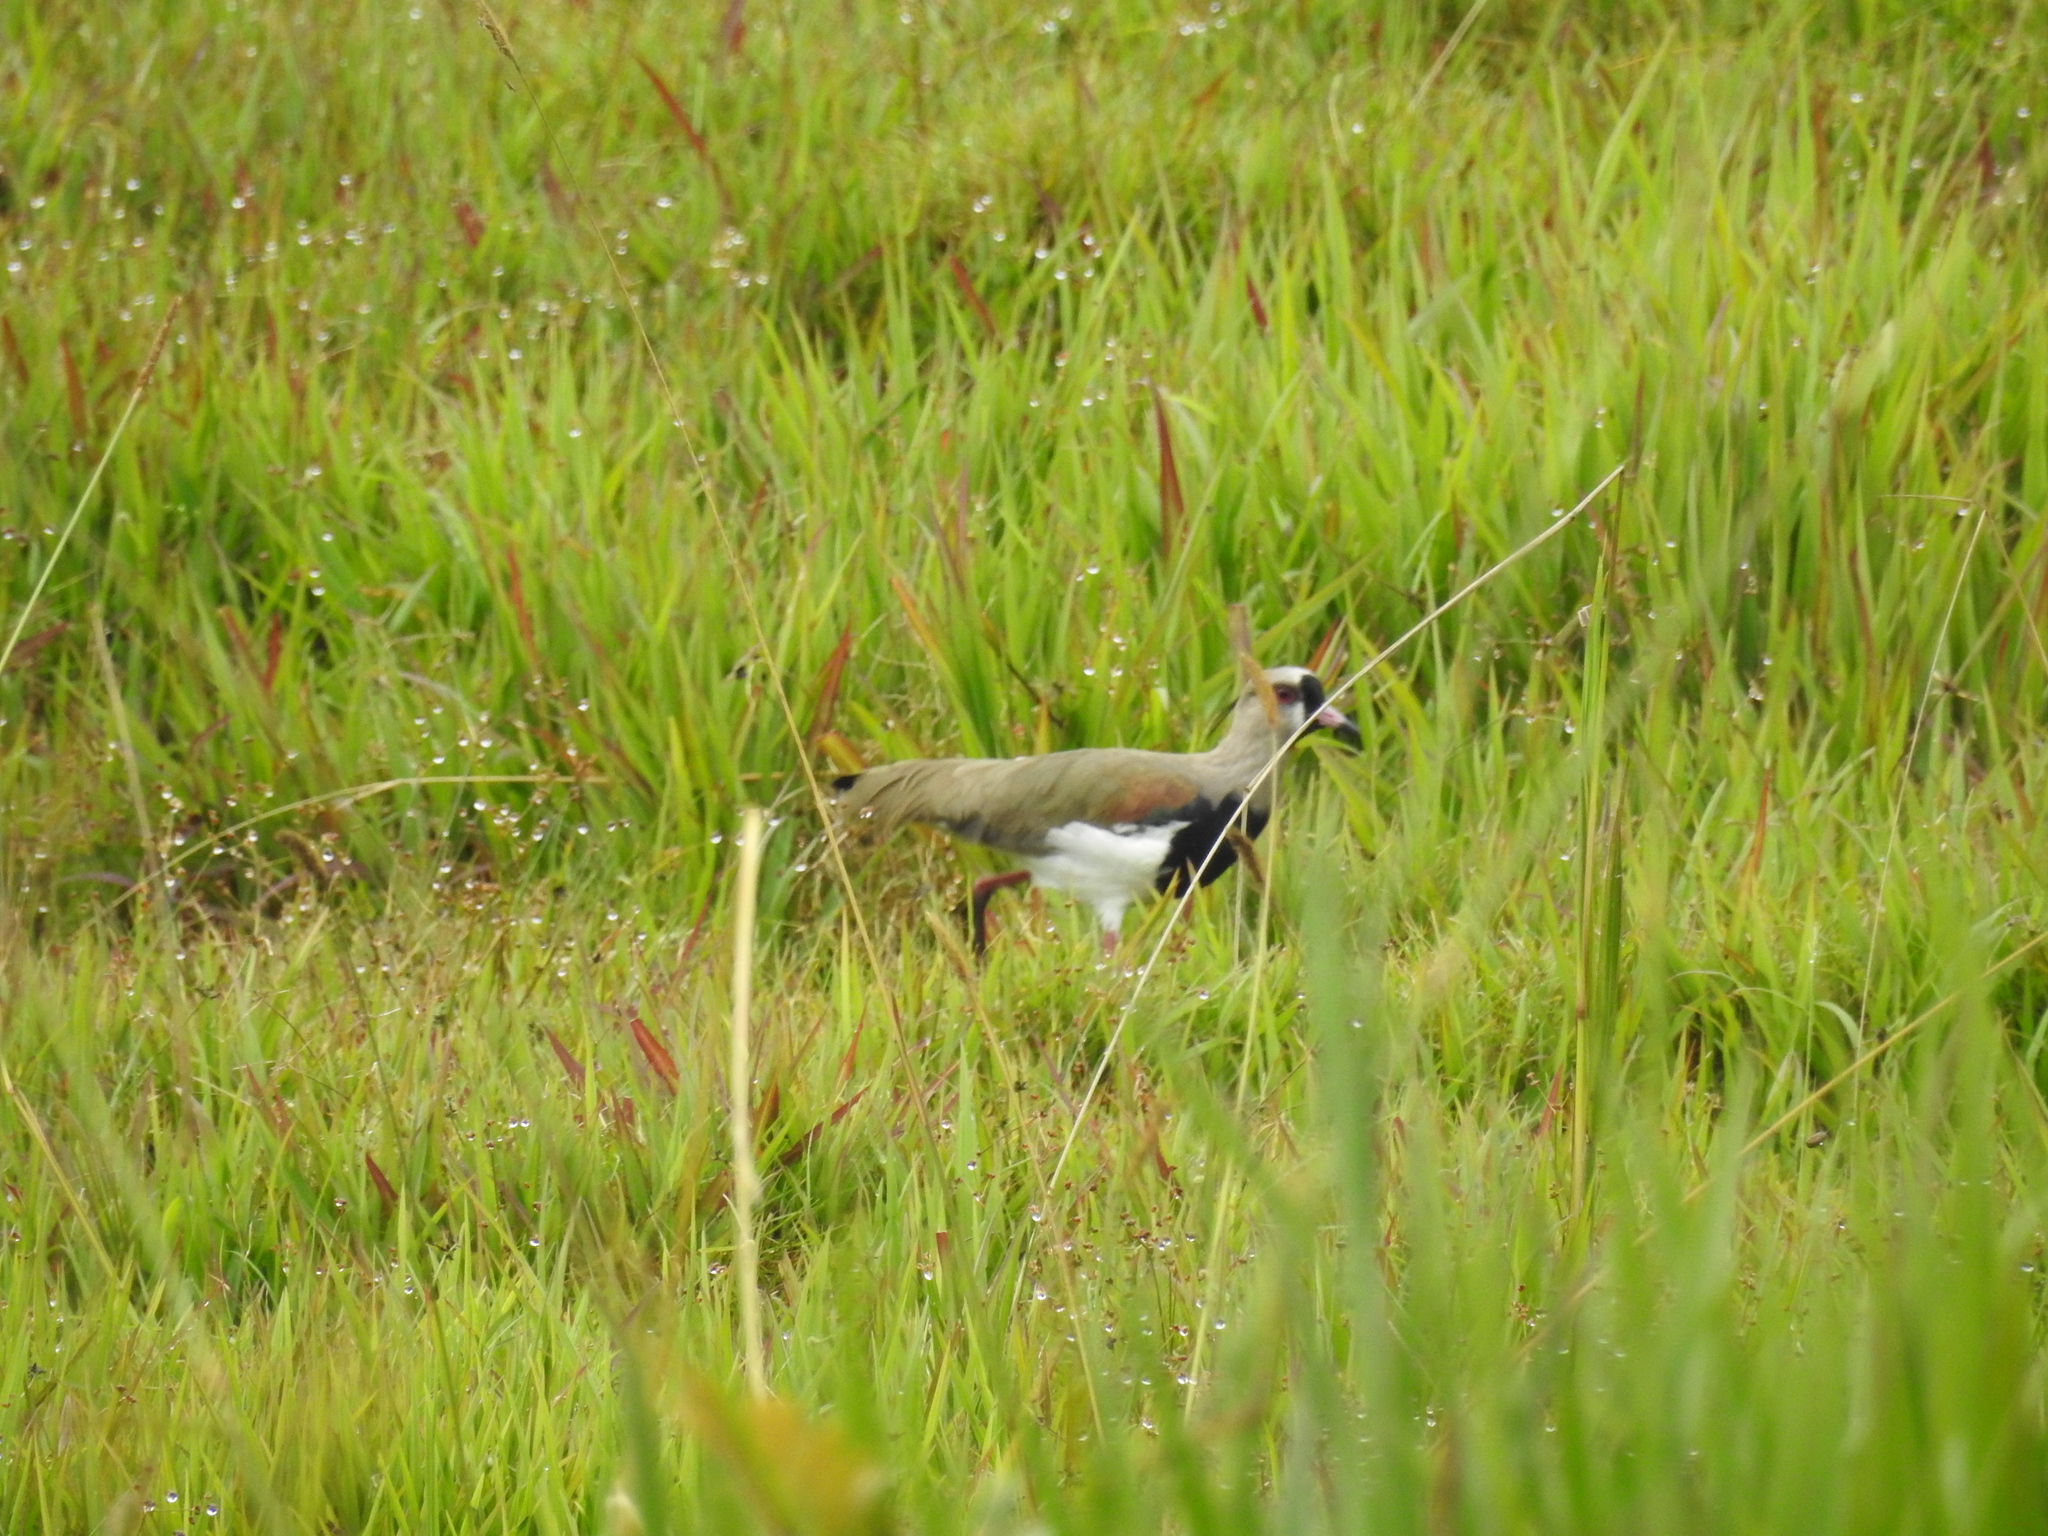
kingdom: Animalia
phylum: Chordata
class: Aves
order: Charadriiformes
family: Charadriidae
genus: Vanellus
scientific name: Vanellus chilensis
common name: Southern lapwing
